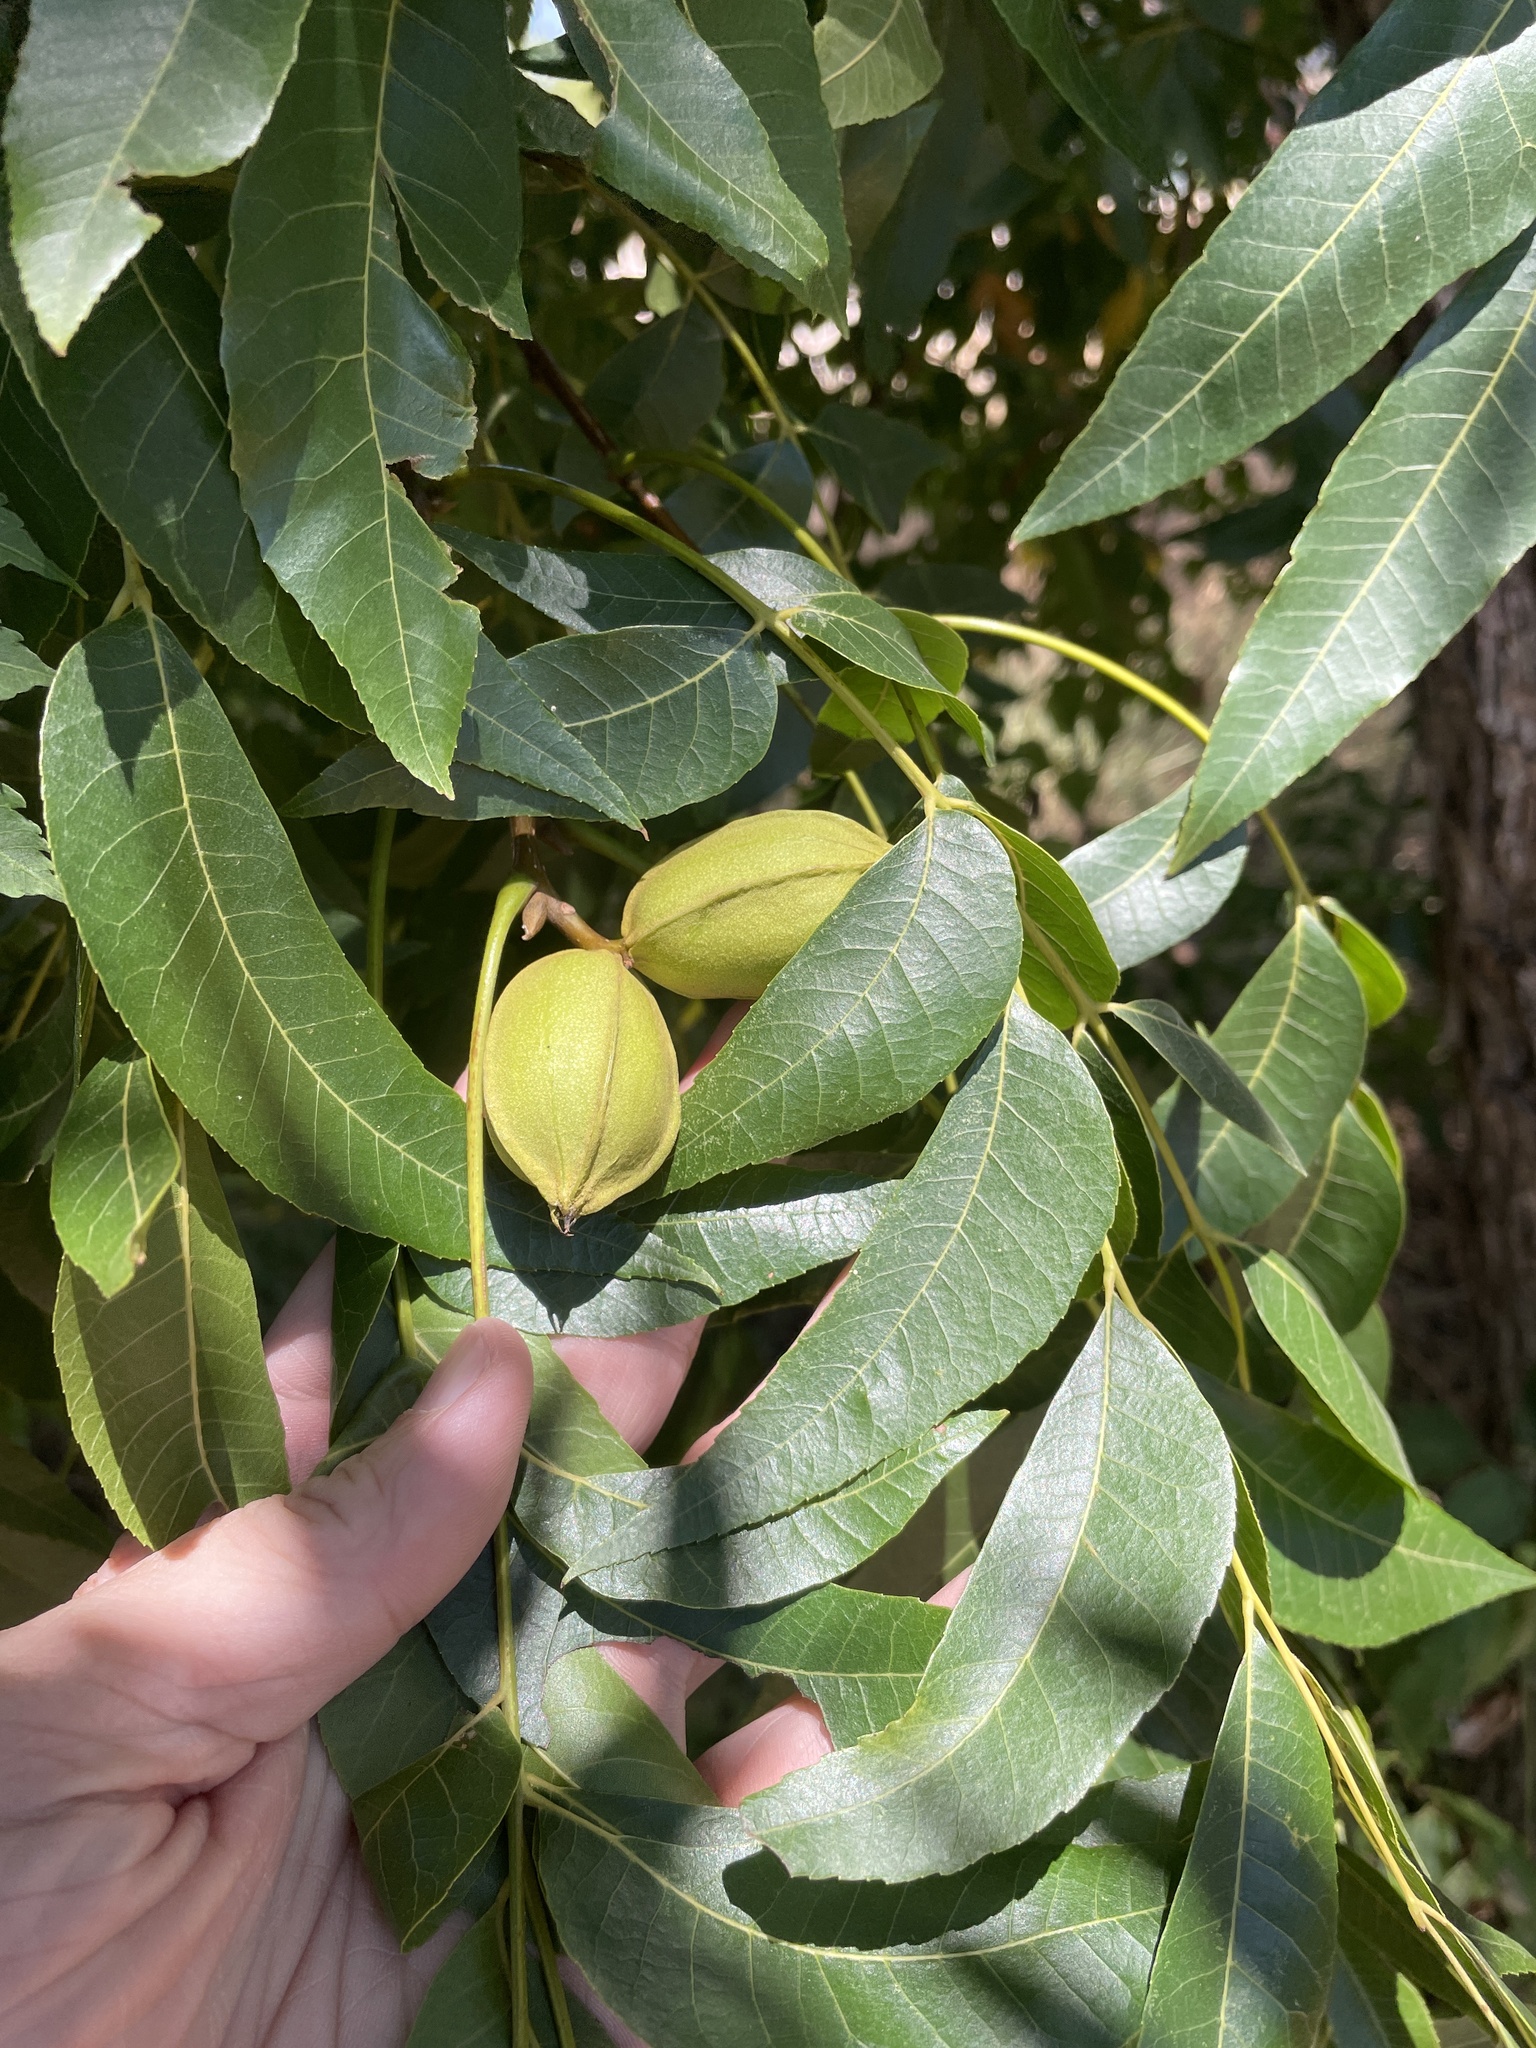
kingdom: Plantae
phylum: Tracheophyta
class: Magnoliopsida
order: Fagales
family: Juglandaceae
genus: Carya
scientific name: Carya illinoinensis
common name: Pecan
